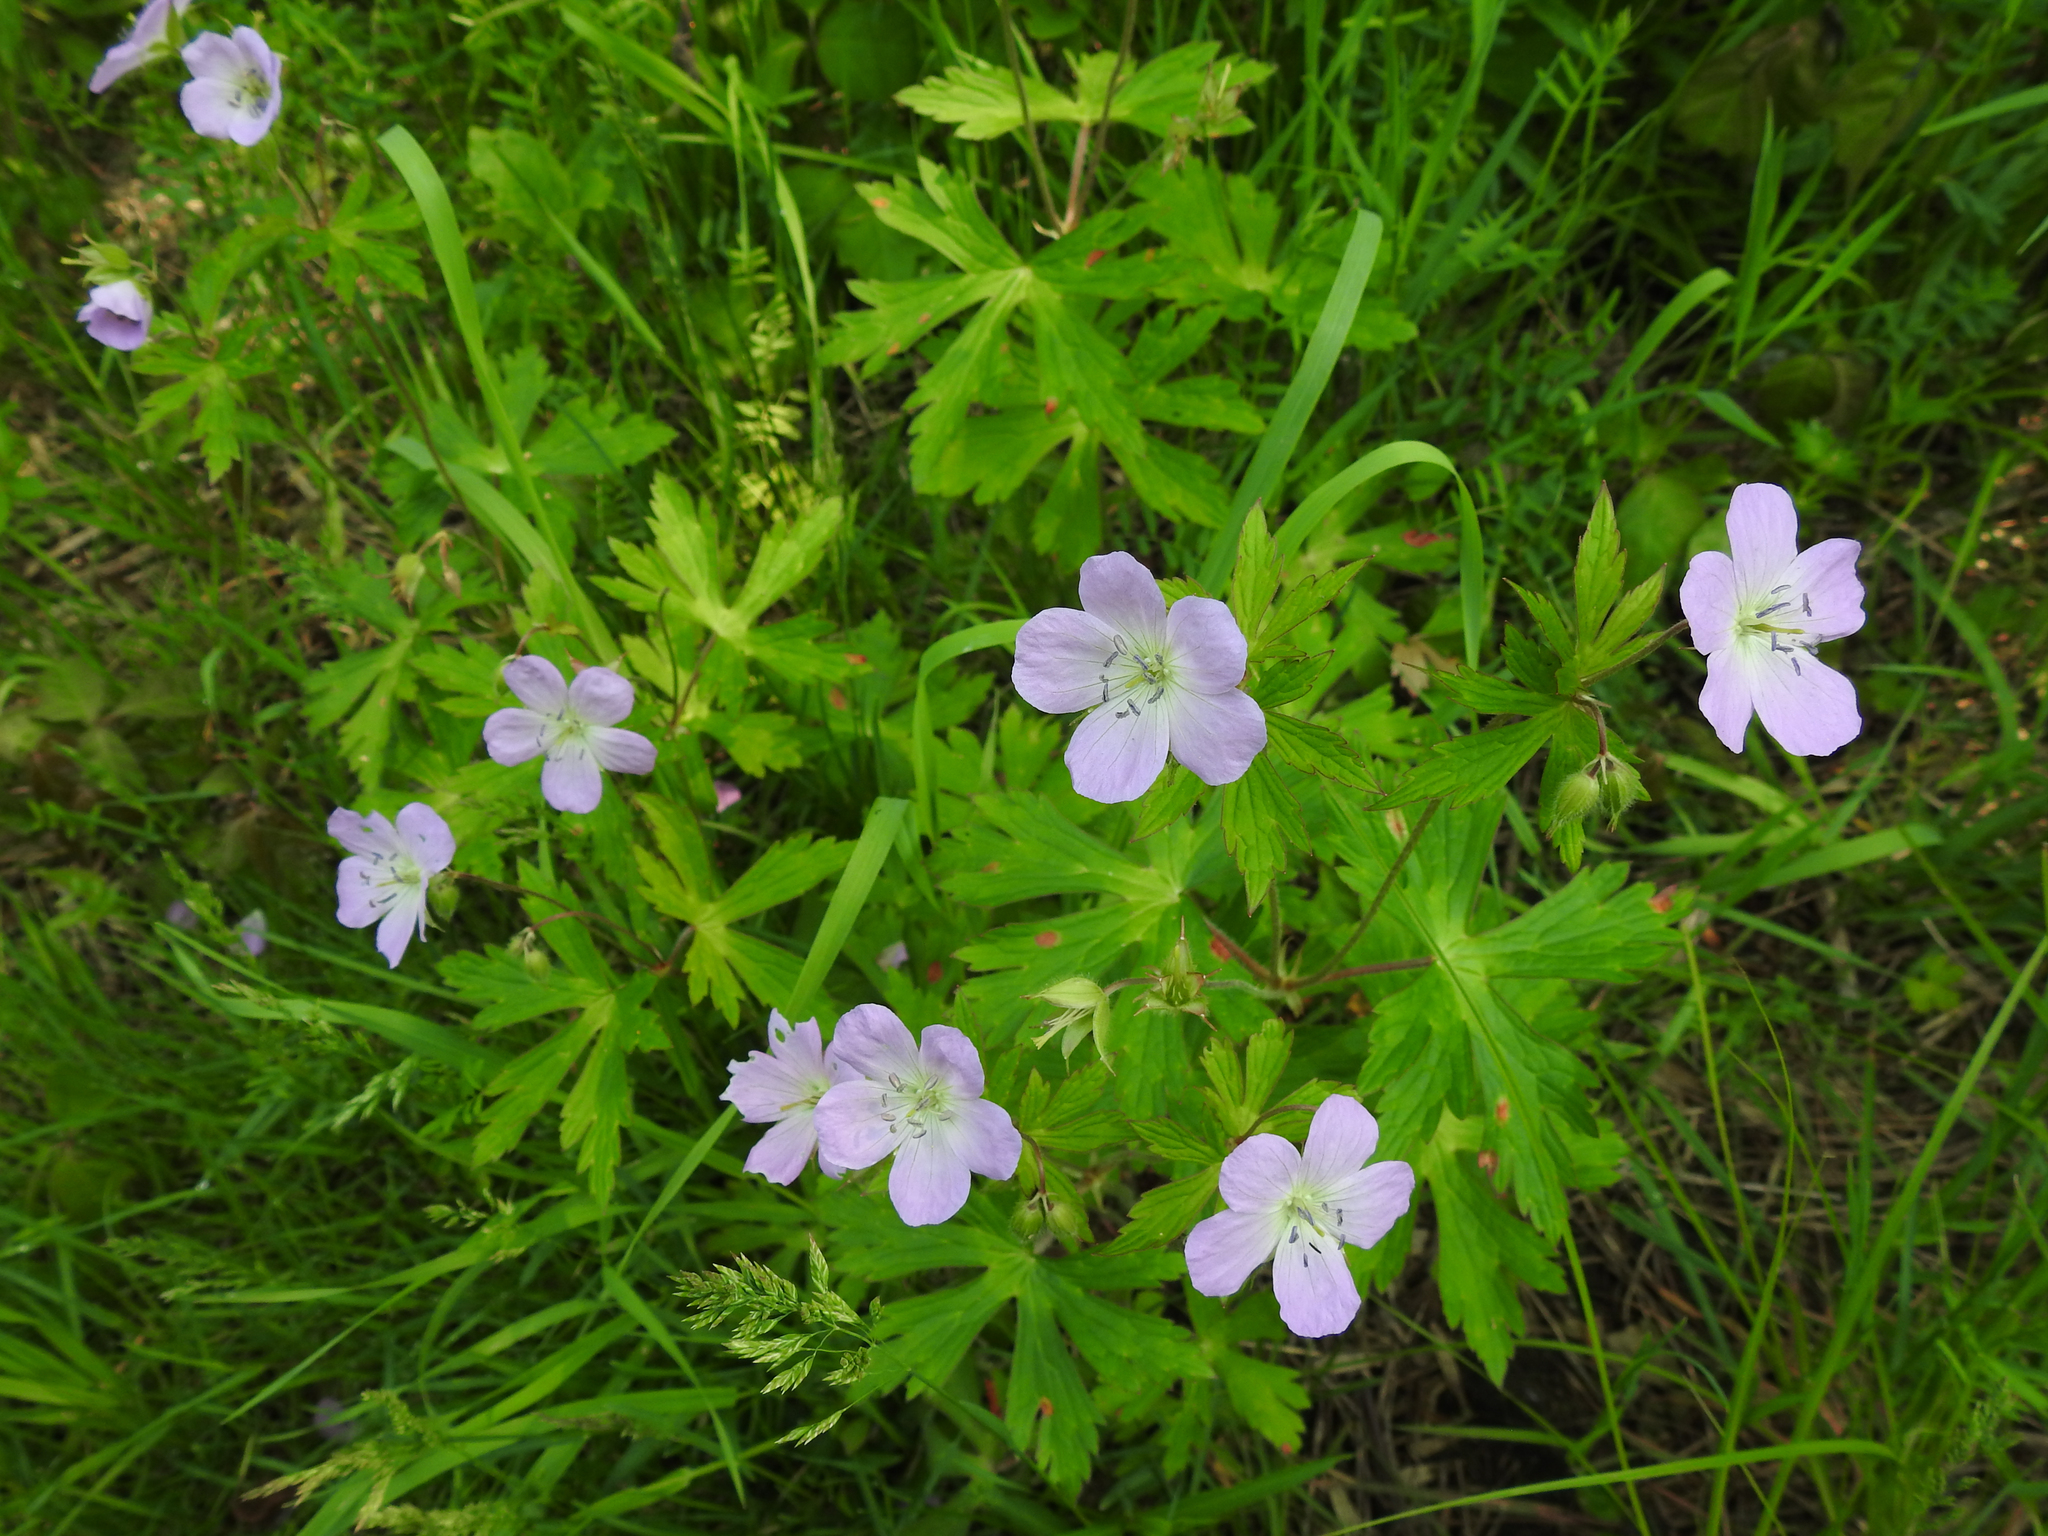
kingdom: Plantae
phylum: Tracheophyta
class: Magnoliopsida
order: Geraniales
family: Geraniaceae
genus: Geranium
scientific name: Geranium maculatum
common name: Spotted geranium
